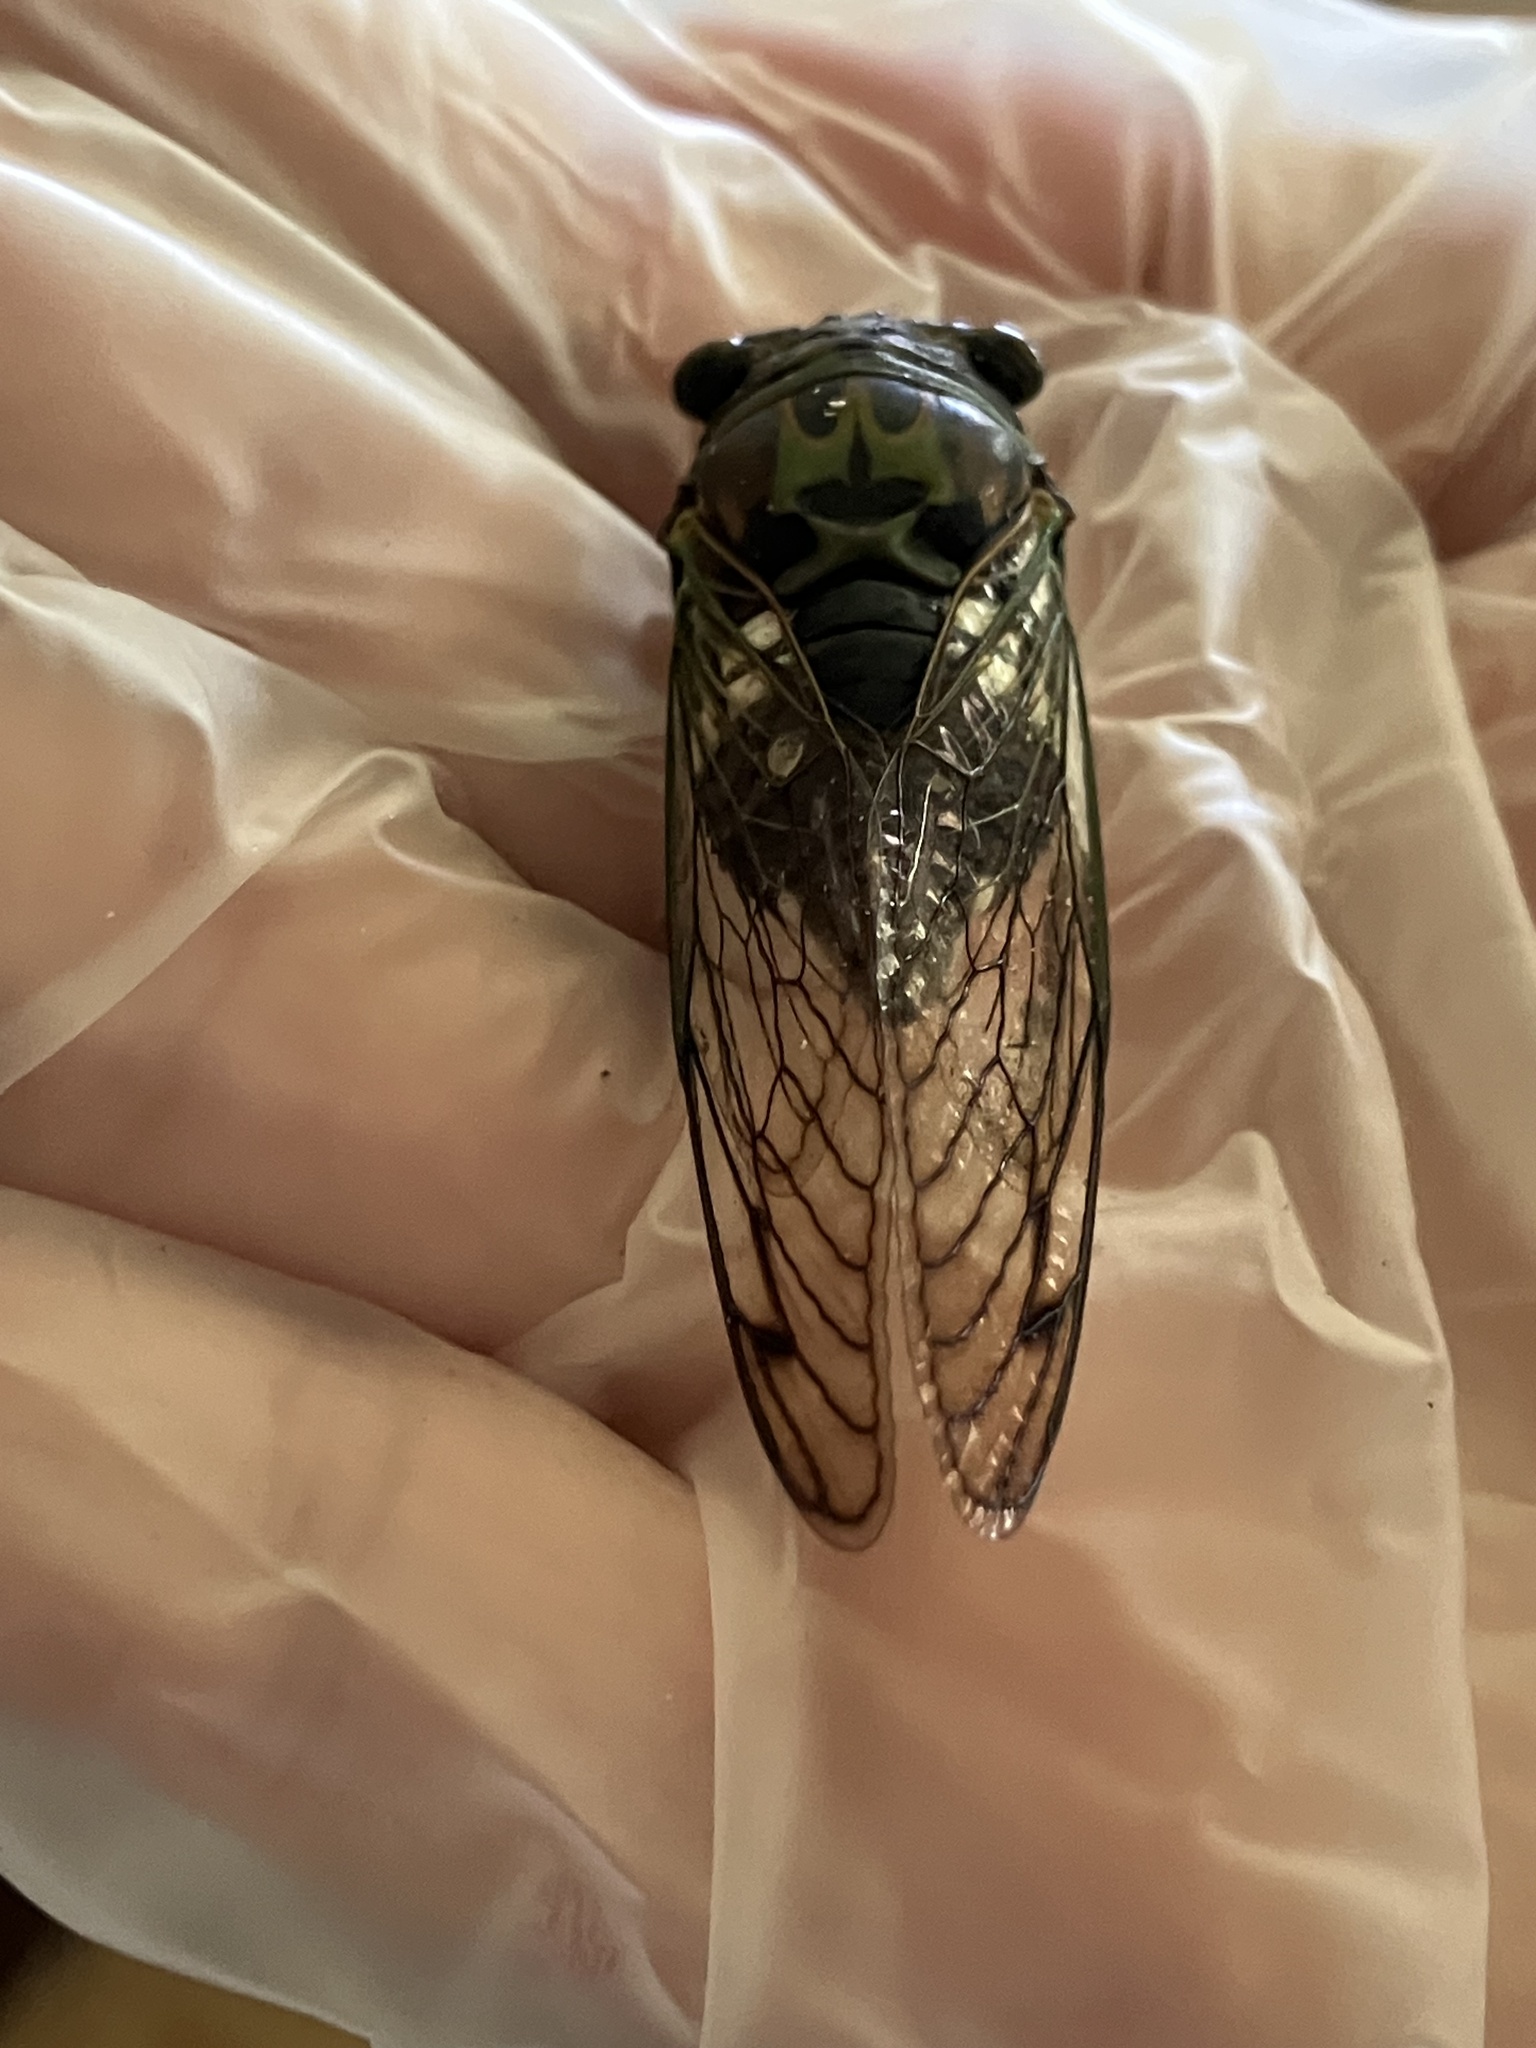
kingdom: Animalia
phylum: Arthropoda
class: Insecta
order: Hemiptera
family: Cicadidae
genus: Neotibicen
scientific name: Neotibicen latifasciatus
